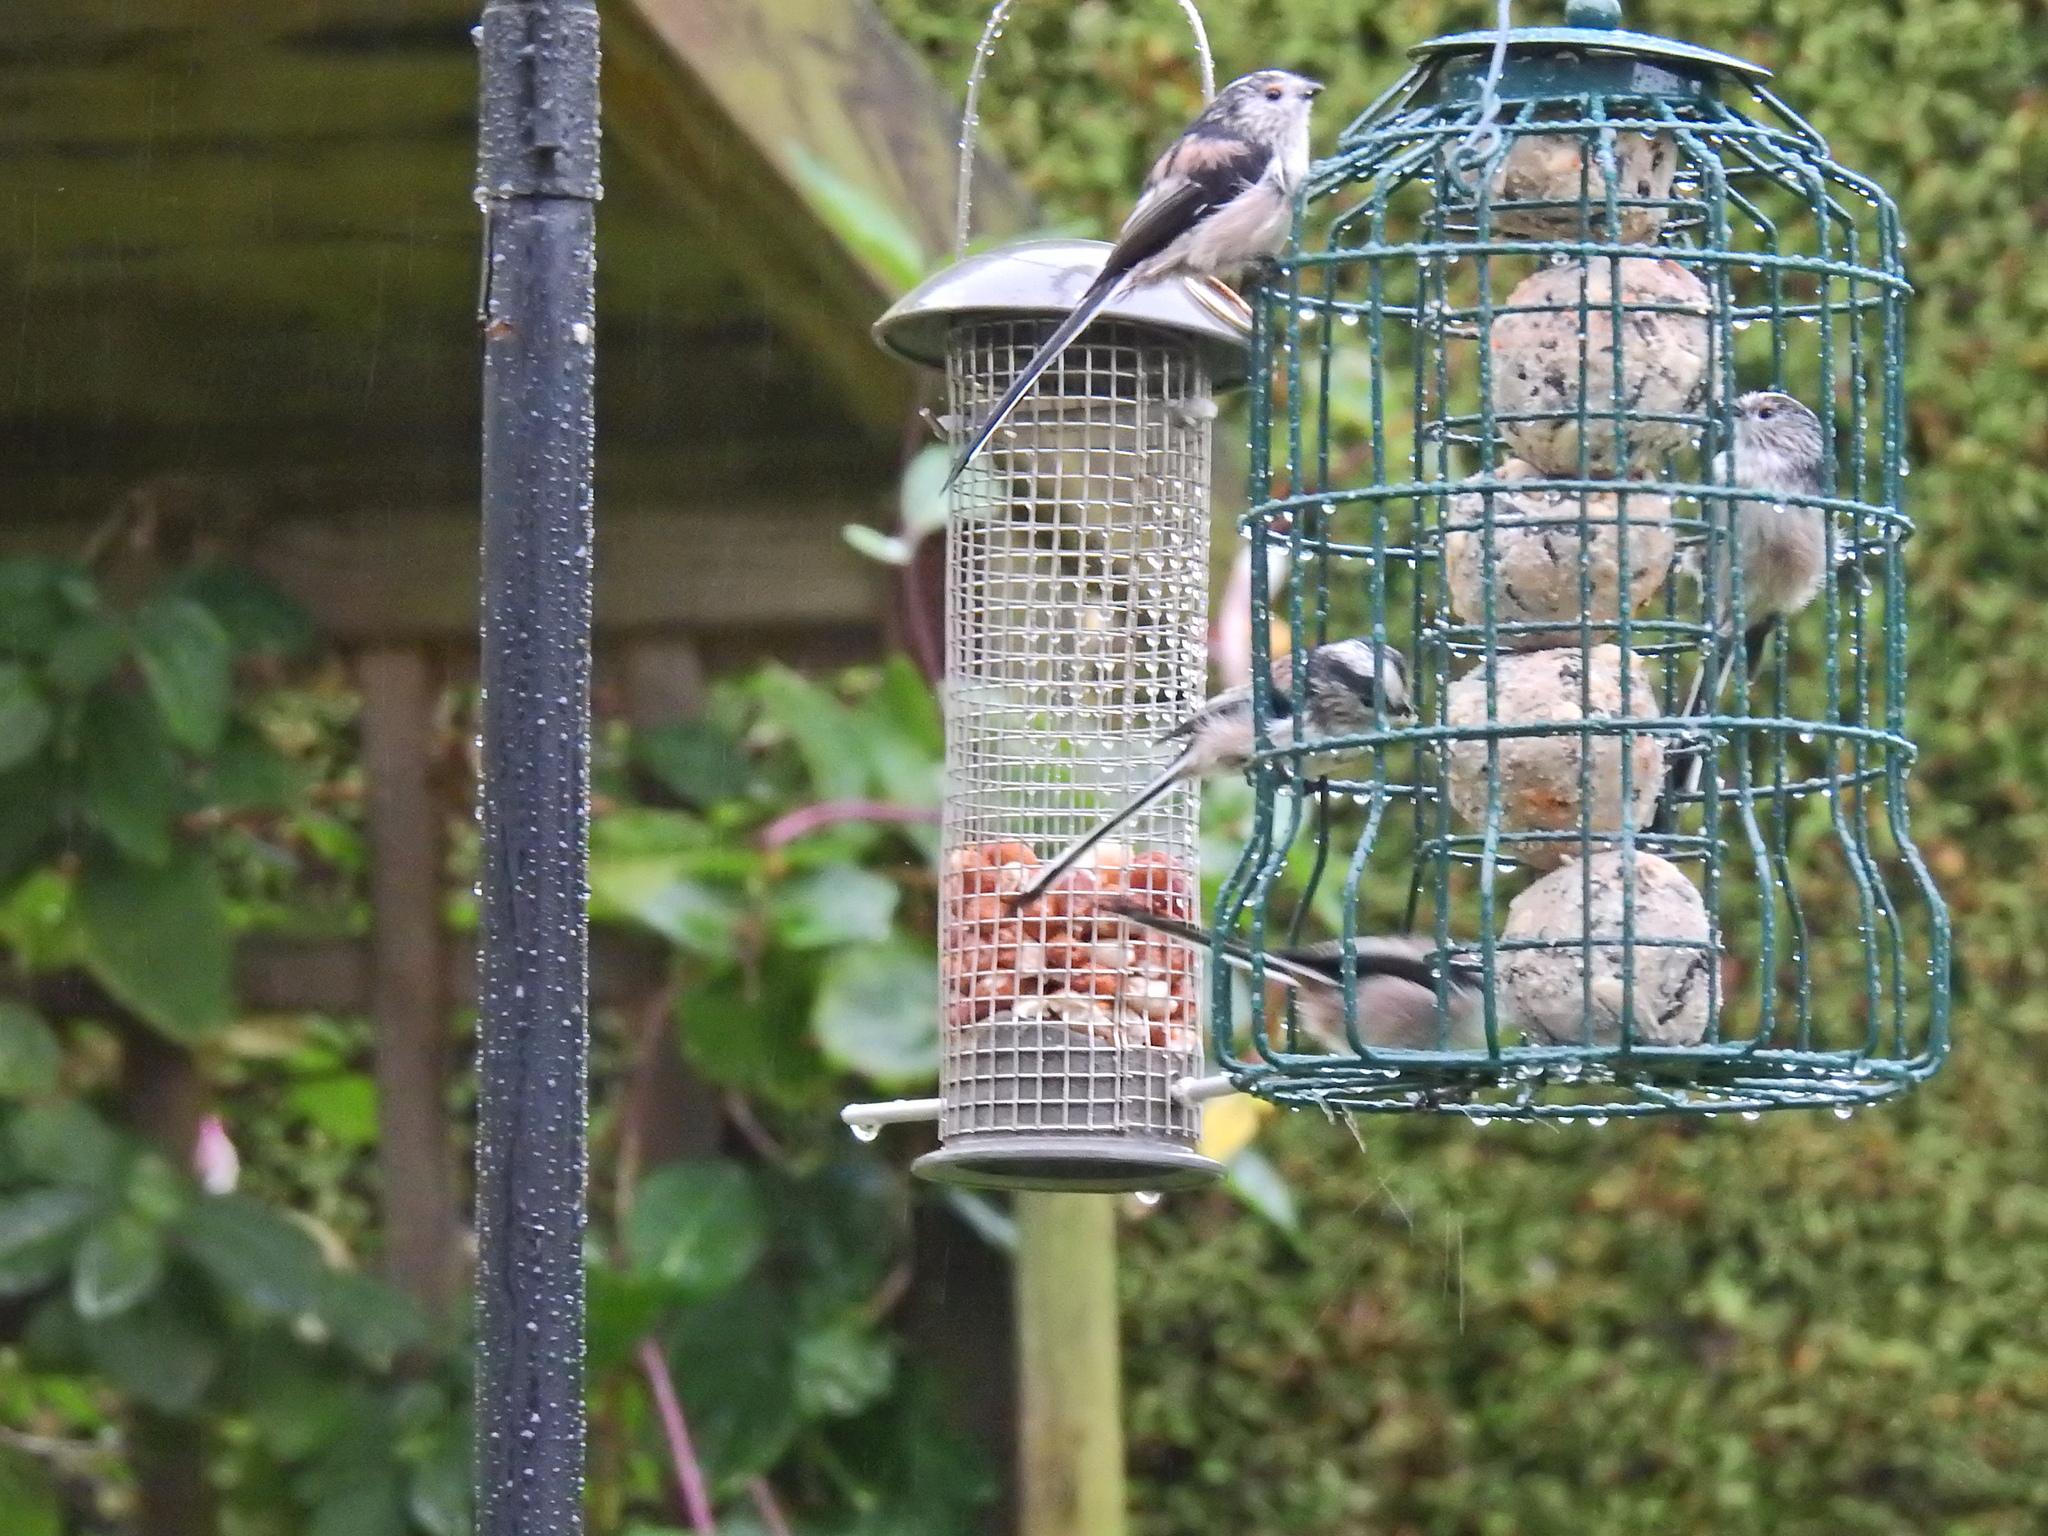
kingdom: Animalia
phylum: Chordata
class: Aves
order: Passeriformes
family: Aegithalidae
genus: Aegithalos
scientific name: Aegithalos caudatus
